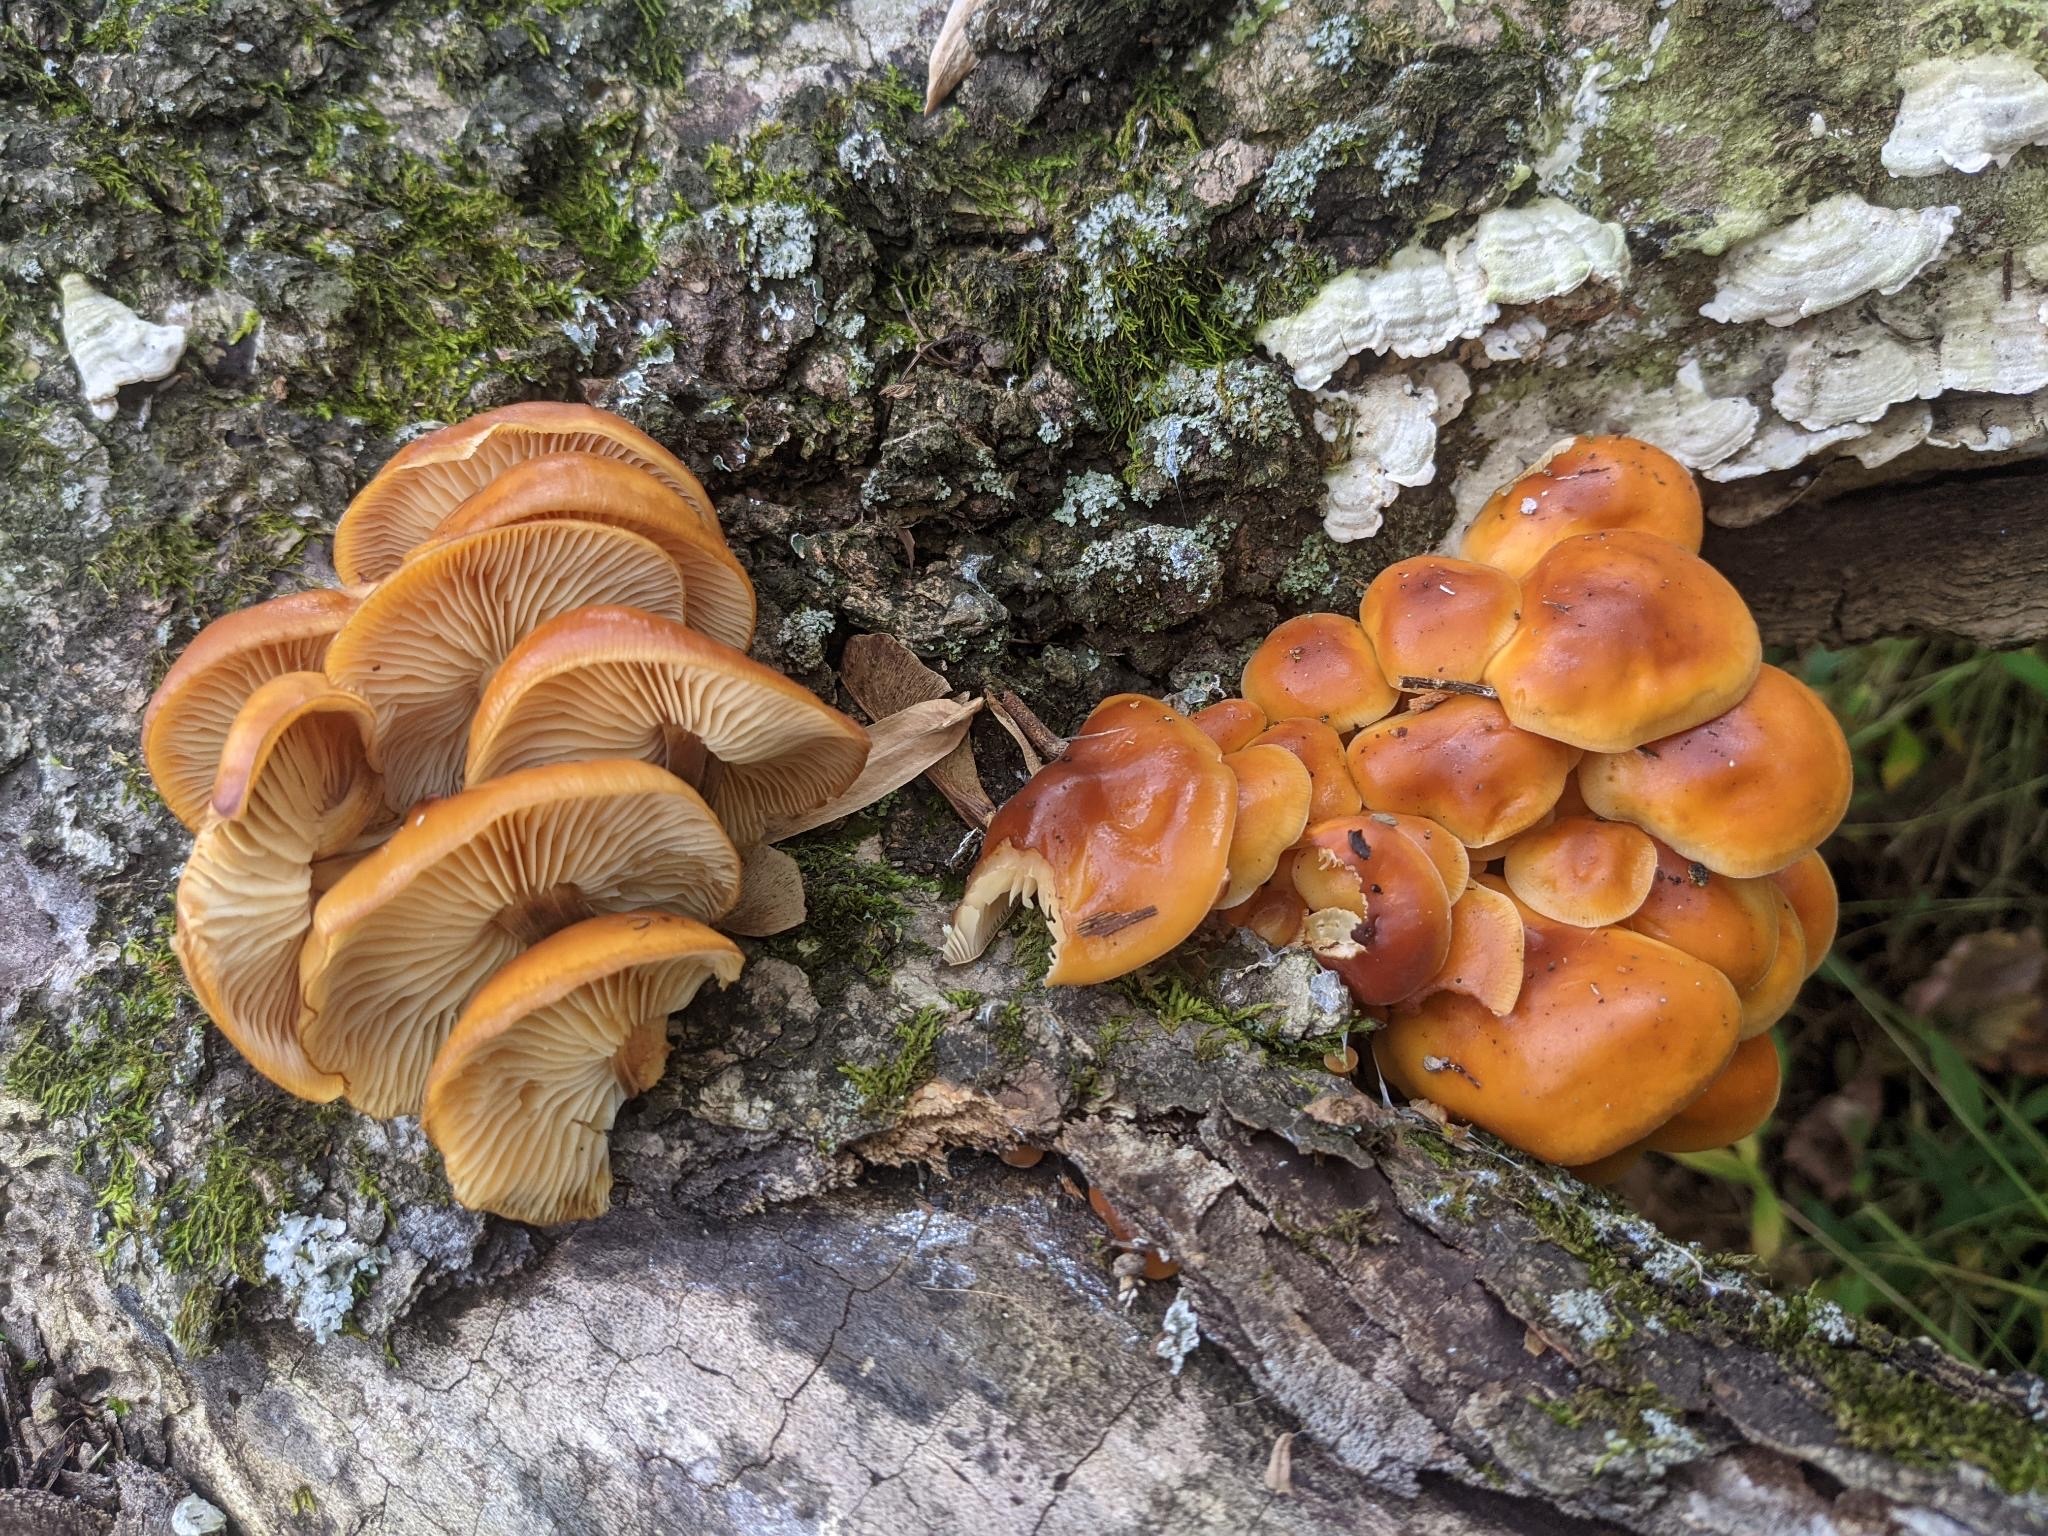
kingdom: Fungi
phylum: Basidiomycota
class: Agaricomycetes
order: Agaricales
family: Physalacriaceae
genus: Flammulina
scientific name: Flammulina velutipes
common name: Velvet shank
